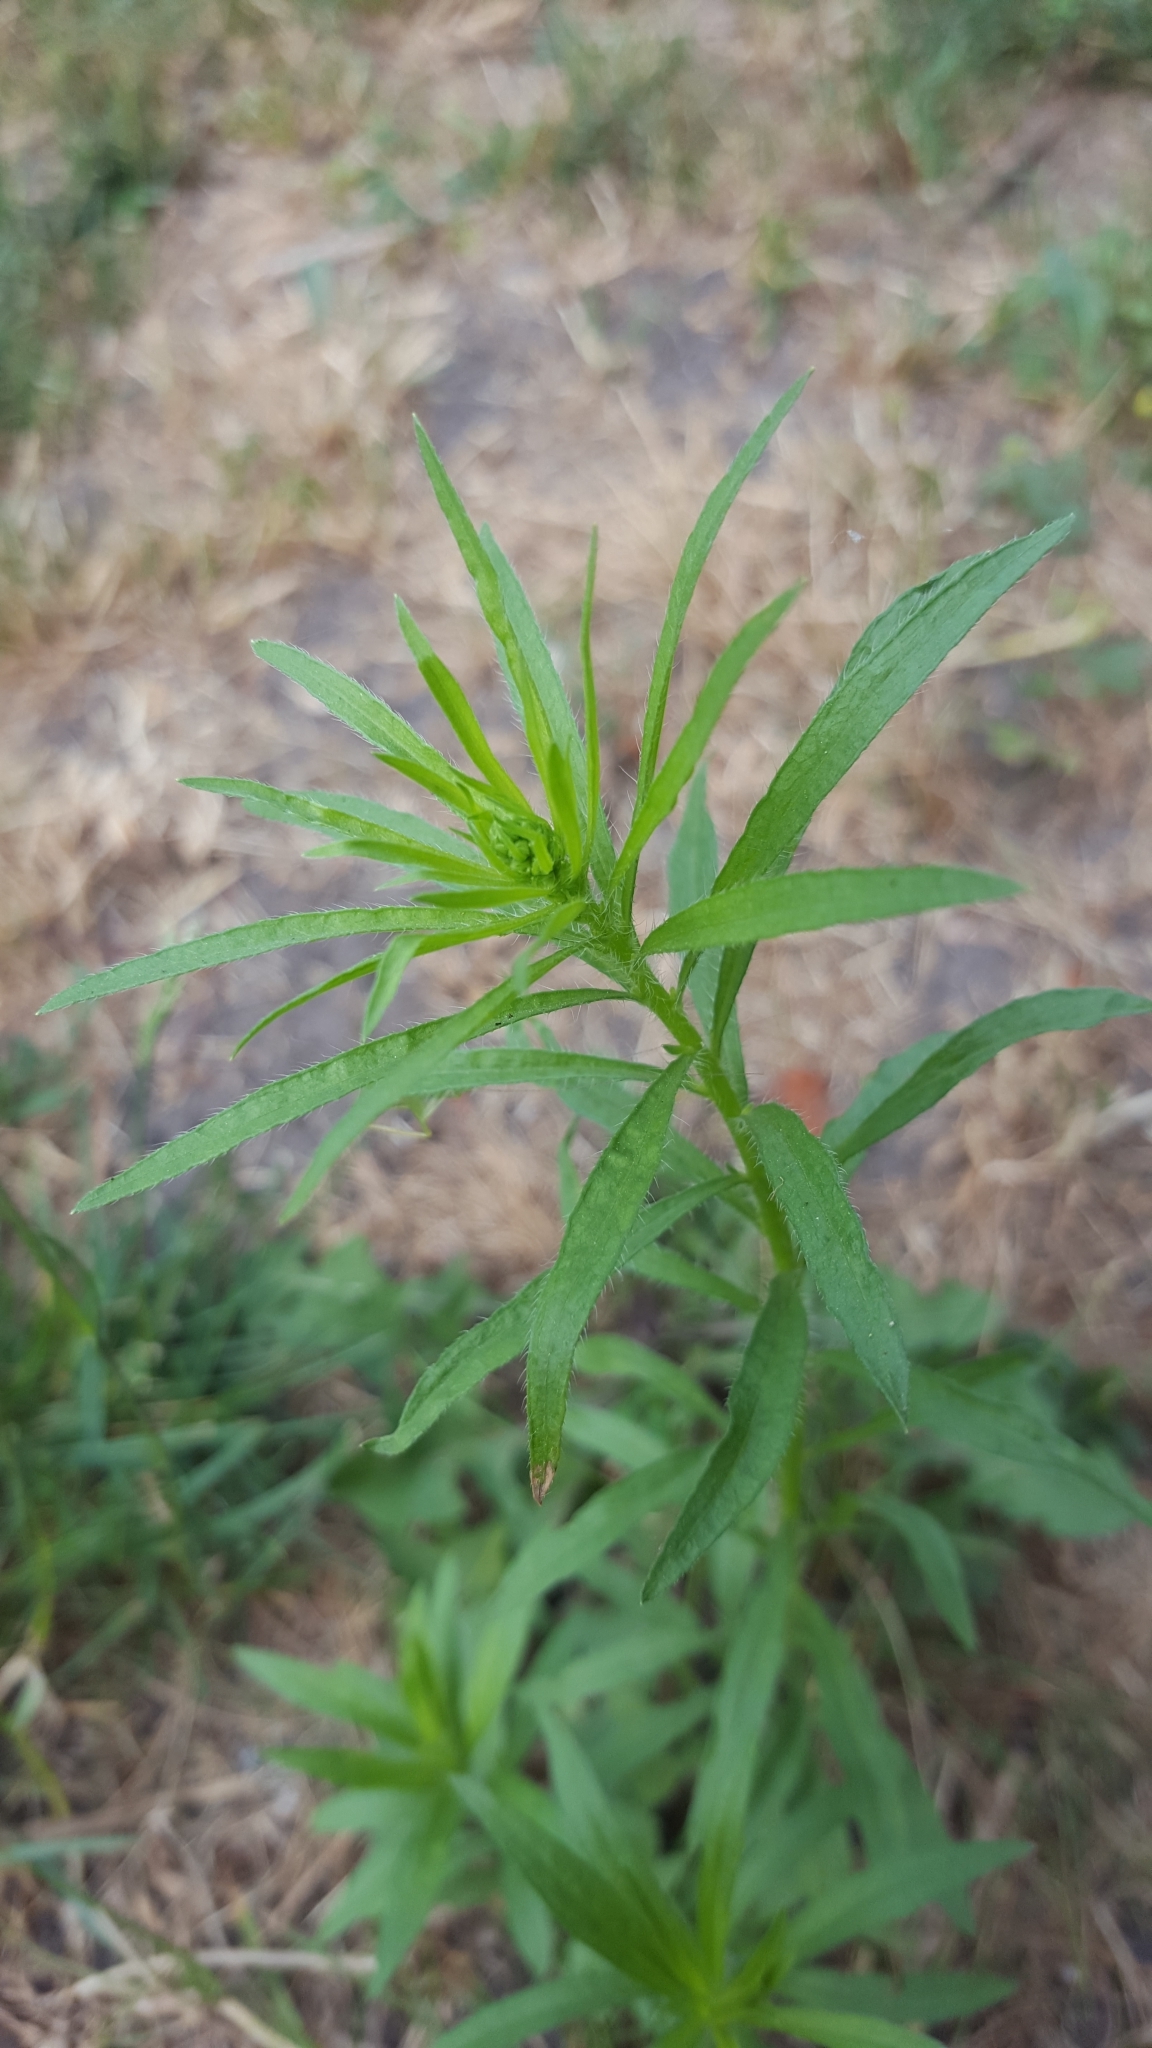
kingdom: Plantae
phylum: Tracheophyta
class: Magnoliopsida
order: Asterales
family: Asteraceae
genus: Erigeron
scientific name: Erigeron canadensis
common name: Canadian fleabane
